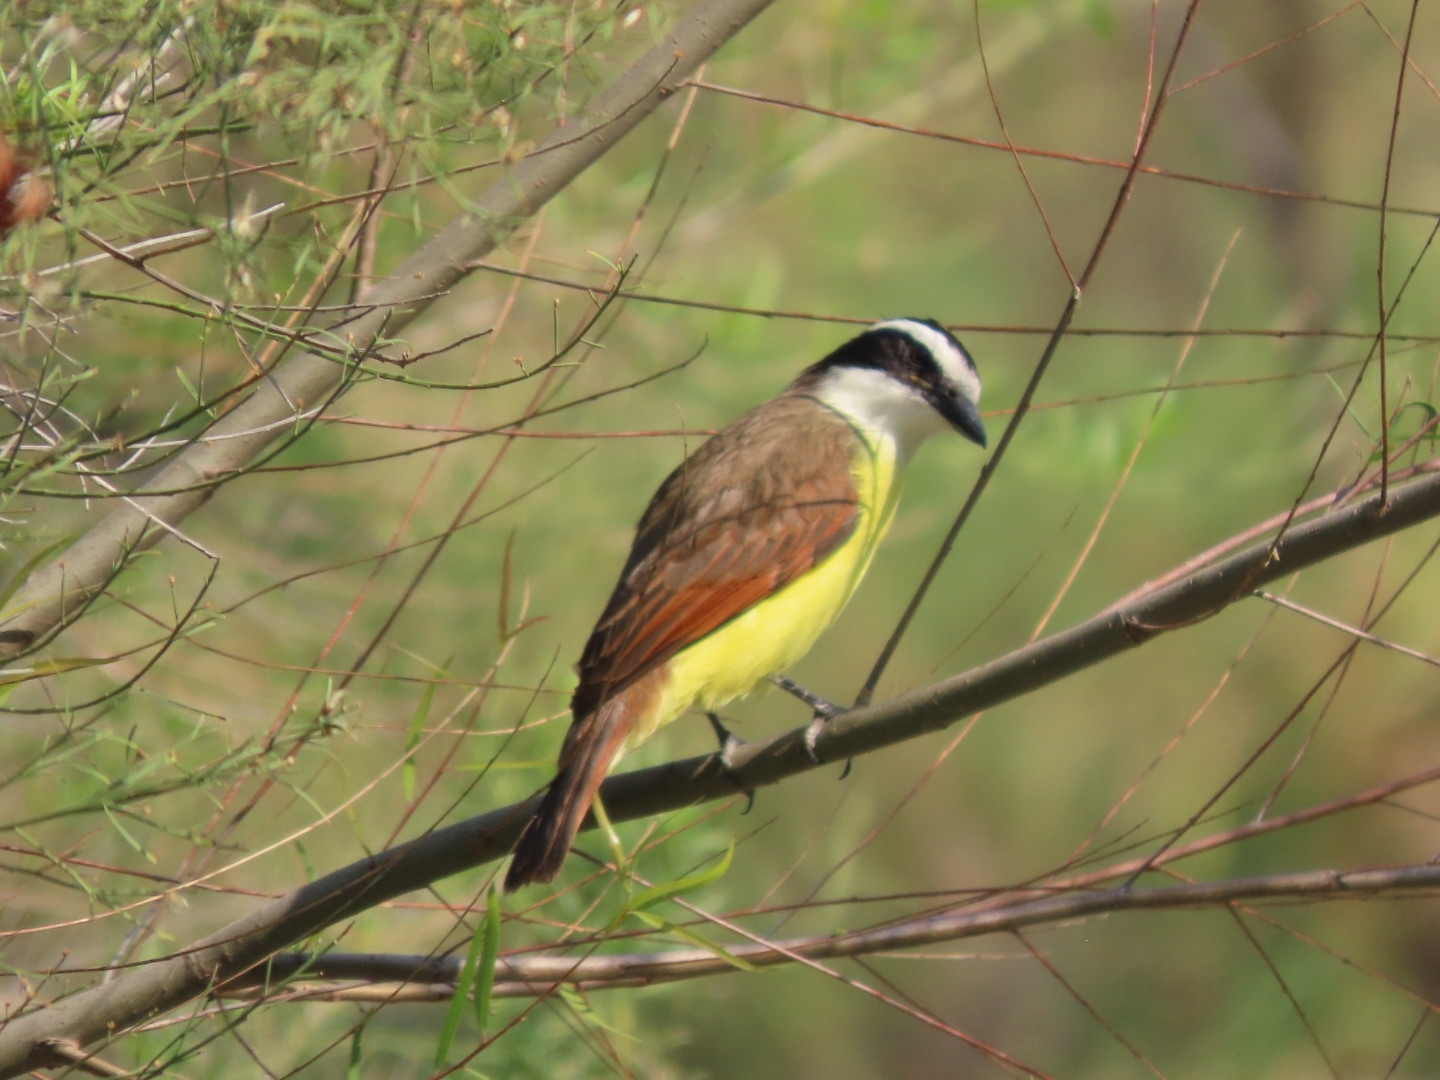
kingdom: Animalia
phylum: Chordata
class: Aves
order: Passeriformes
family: Tyrannidae
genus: Pitangus
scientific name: Pitangus sulphuratus
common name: Great kiskadee
